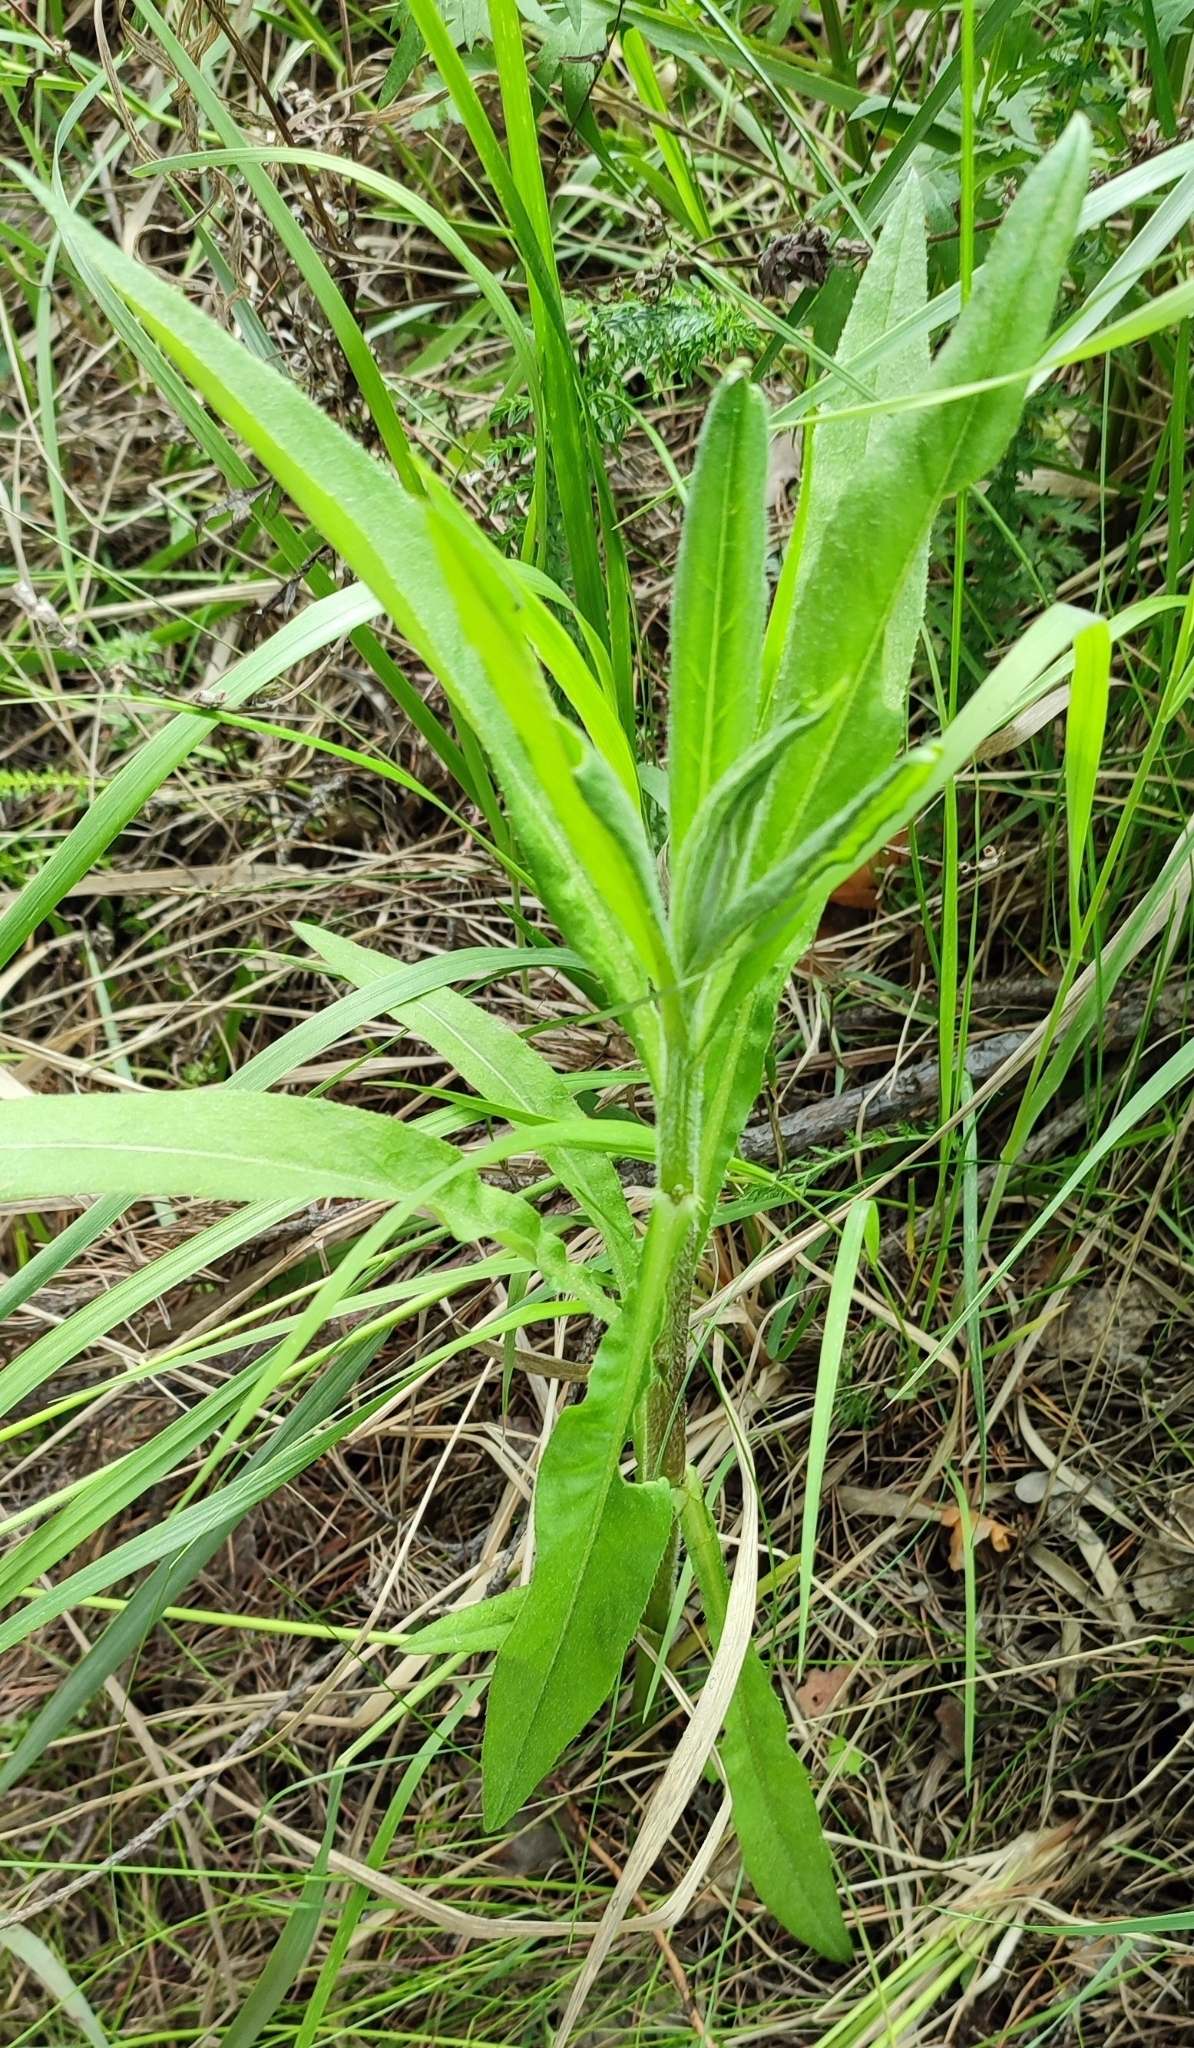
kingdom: Plantae
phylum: Tracheophyta
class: Magnoliopsida
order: Asterales
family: Asteraceae
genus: Cirsium
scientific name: Cirsium arvense
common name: Creeping thistle
